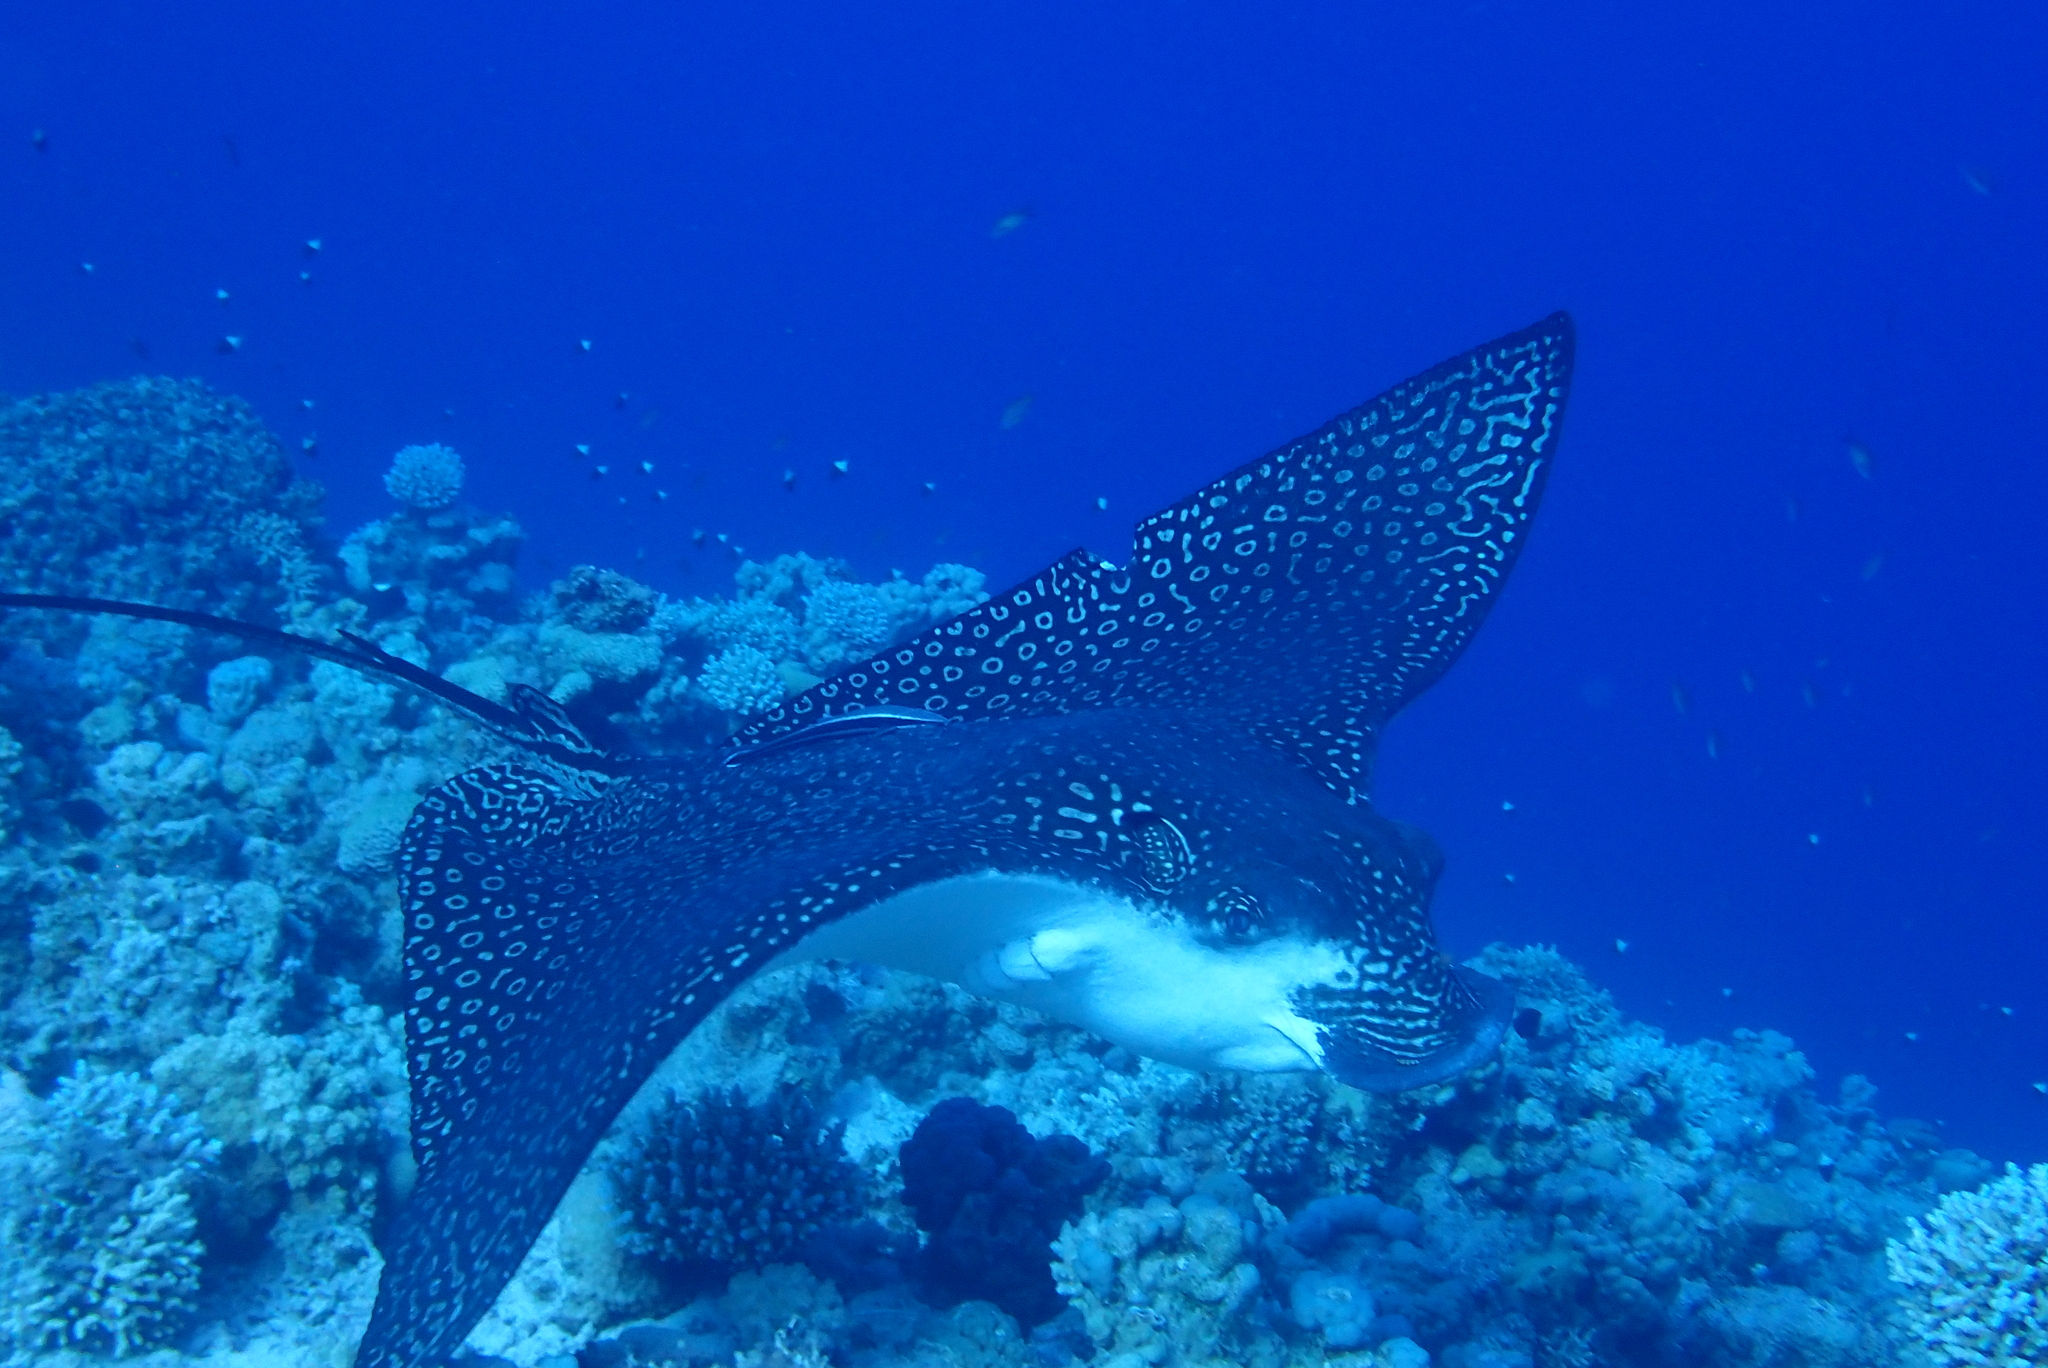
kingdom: Animalia
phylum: Chordata
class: Elasmobranchii
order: Myliobatiformes
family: Myliobatidae
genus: Aetobatus
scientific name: Aetobatus ocellatus
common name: Ocellated eagle ray
